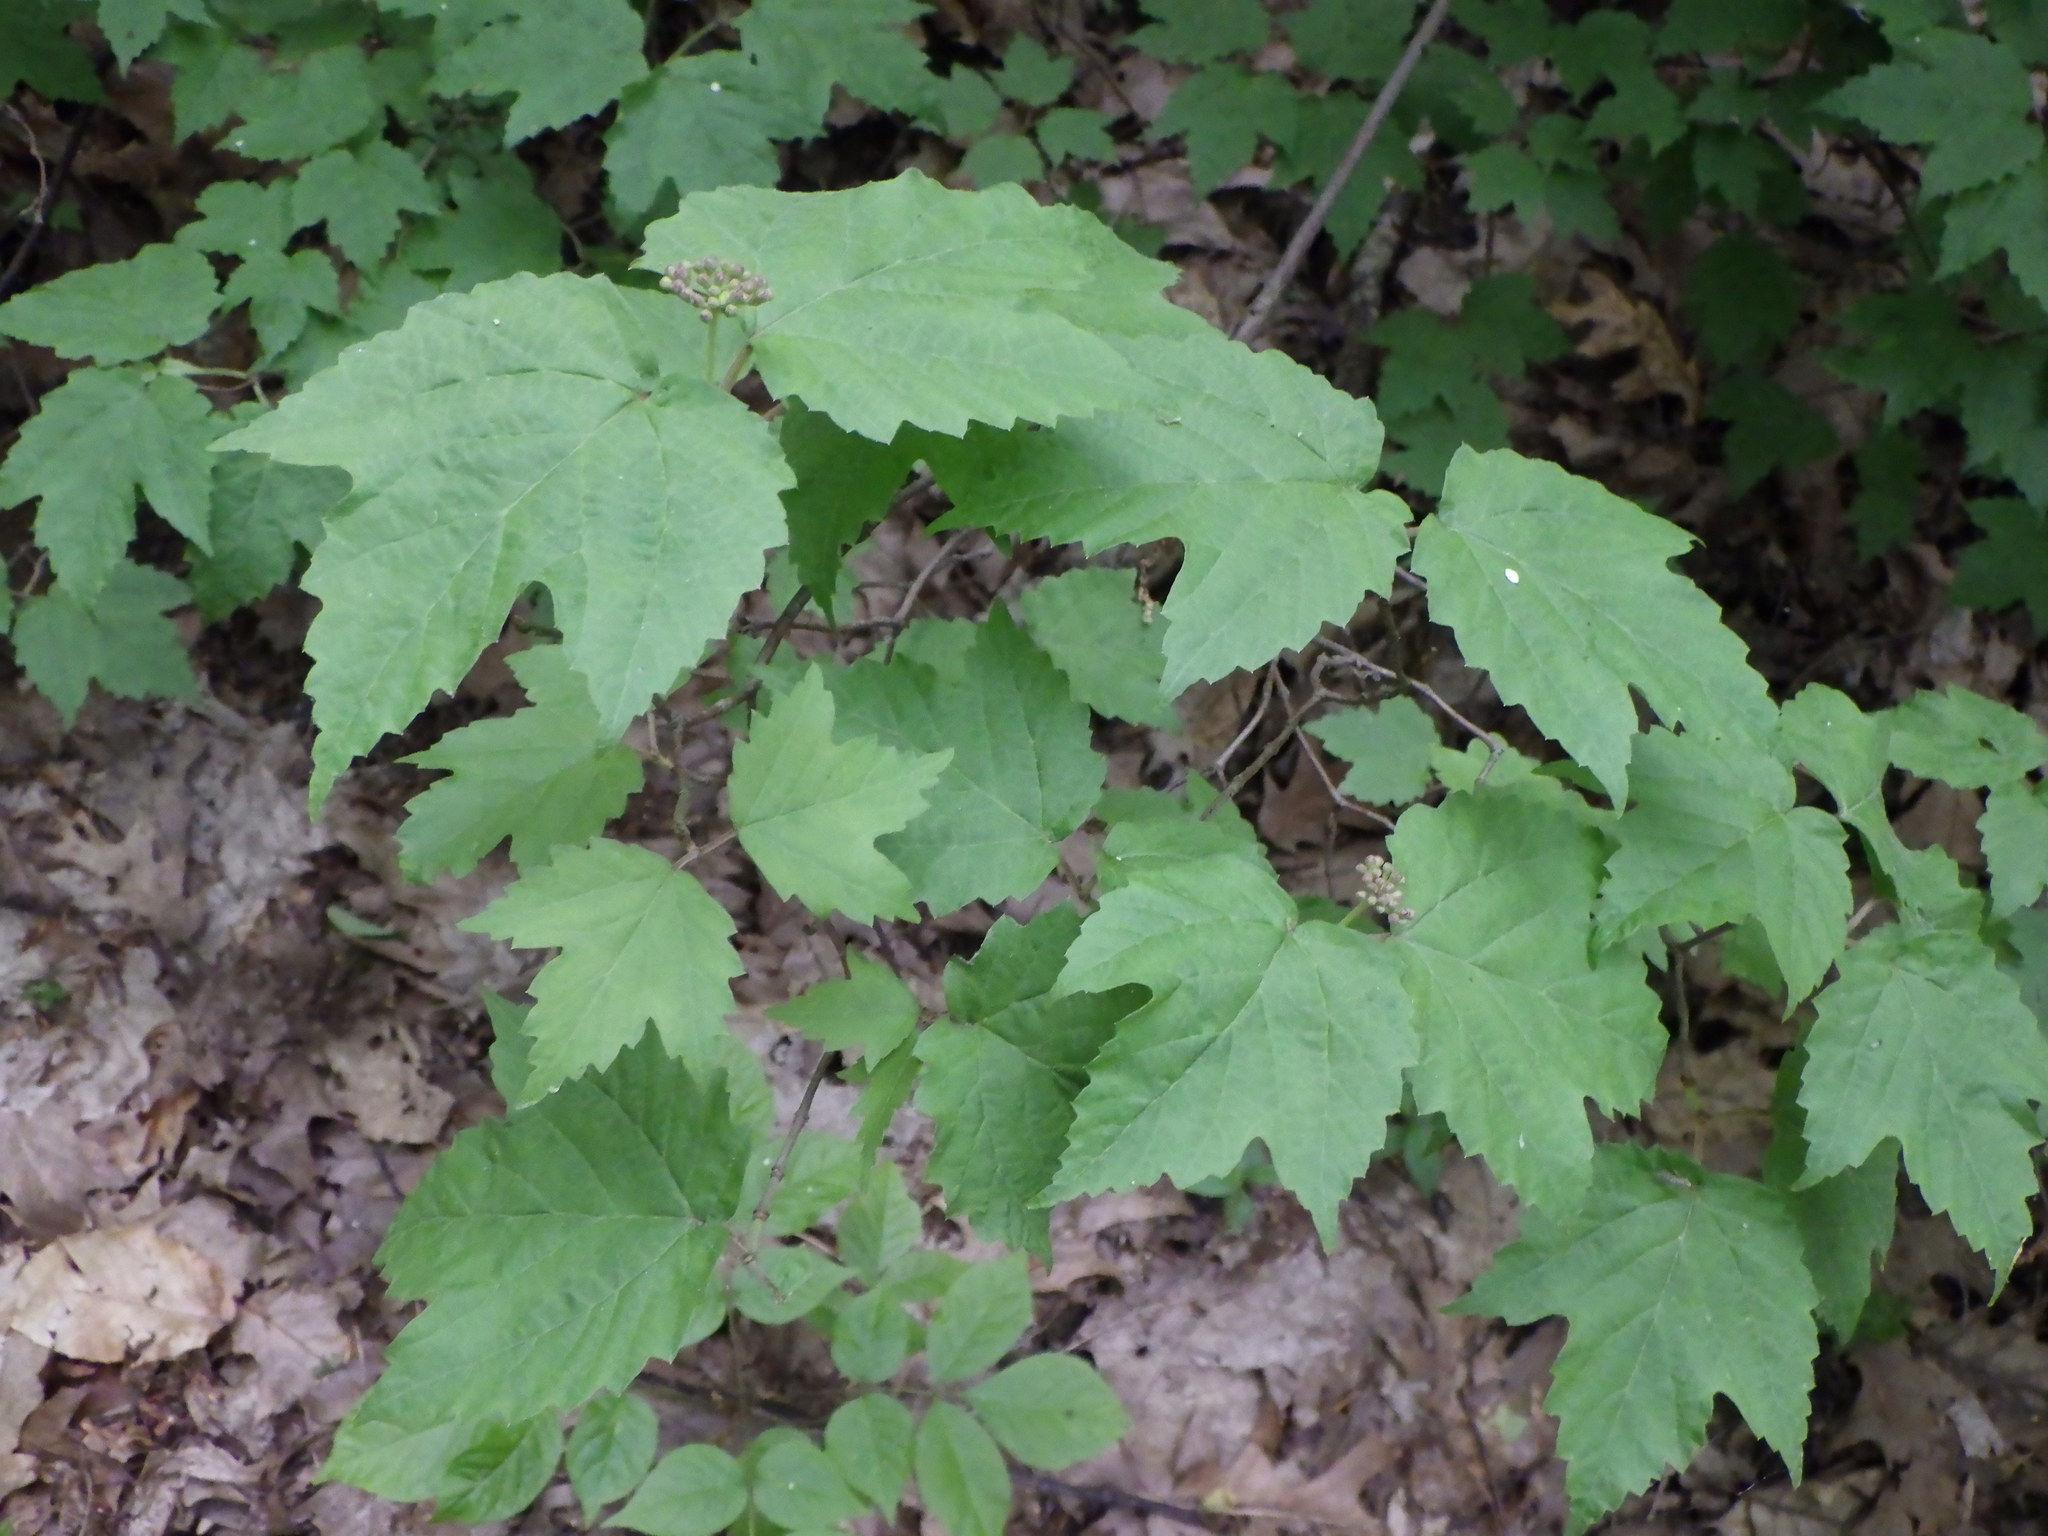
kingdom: Plantae
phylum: Tracheophyta
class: Magnoliopsida
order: Dipsacales
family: Viburnaceae
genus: Viburnum
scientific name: Viburnum acerifolium
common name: Dockmackie
